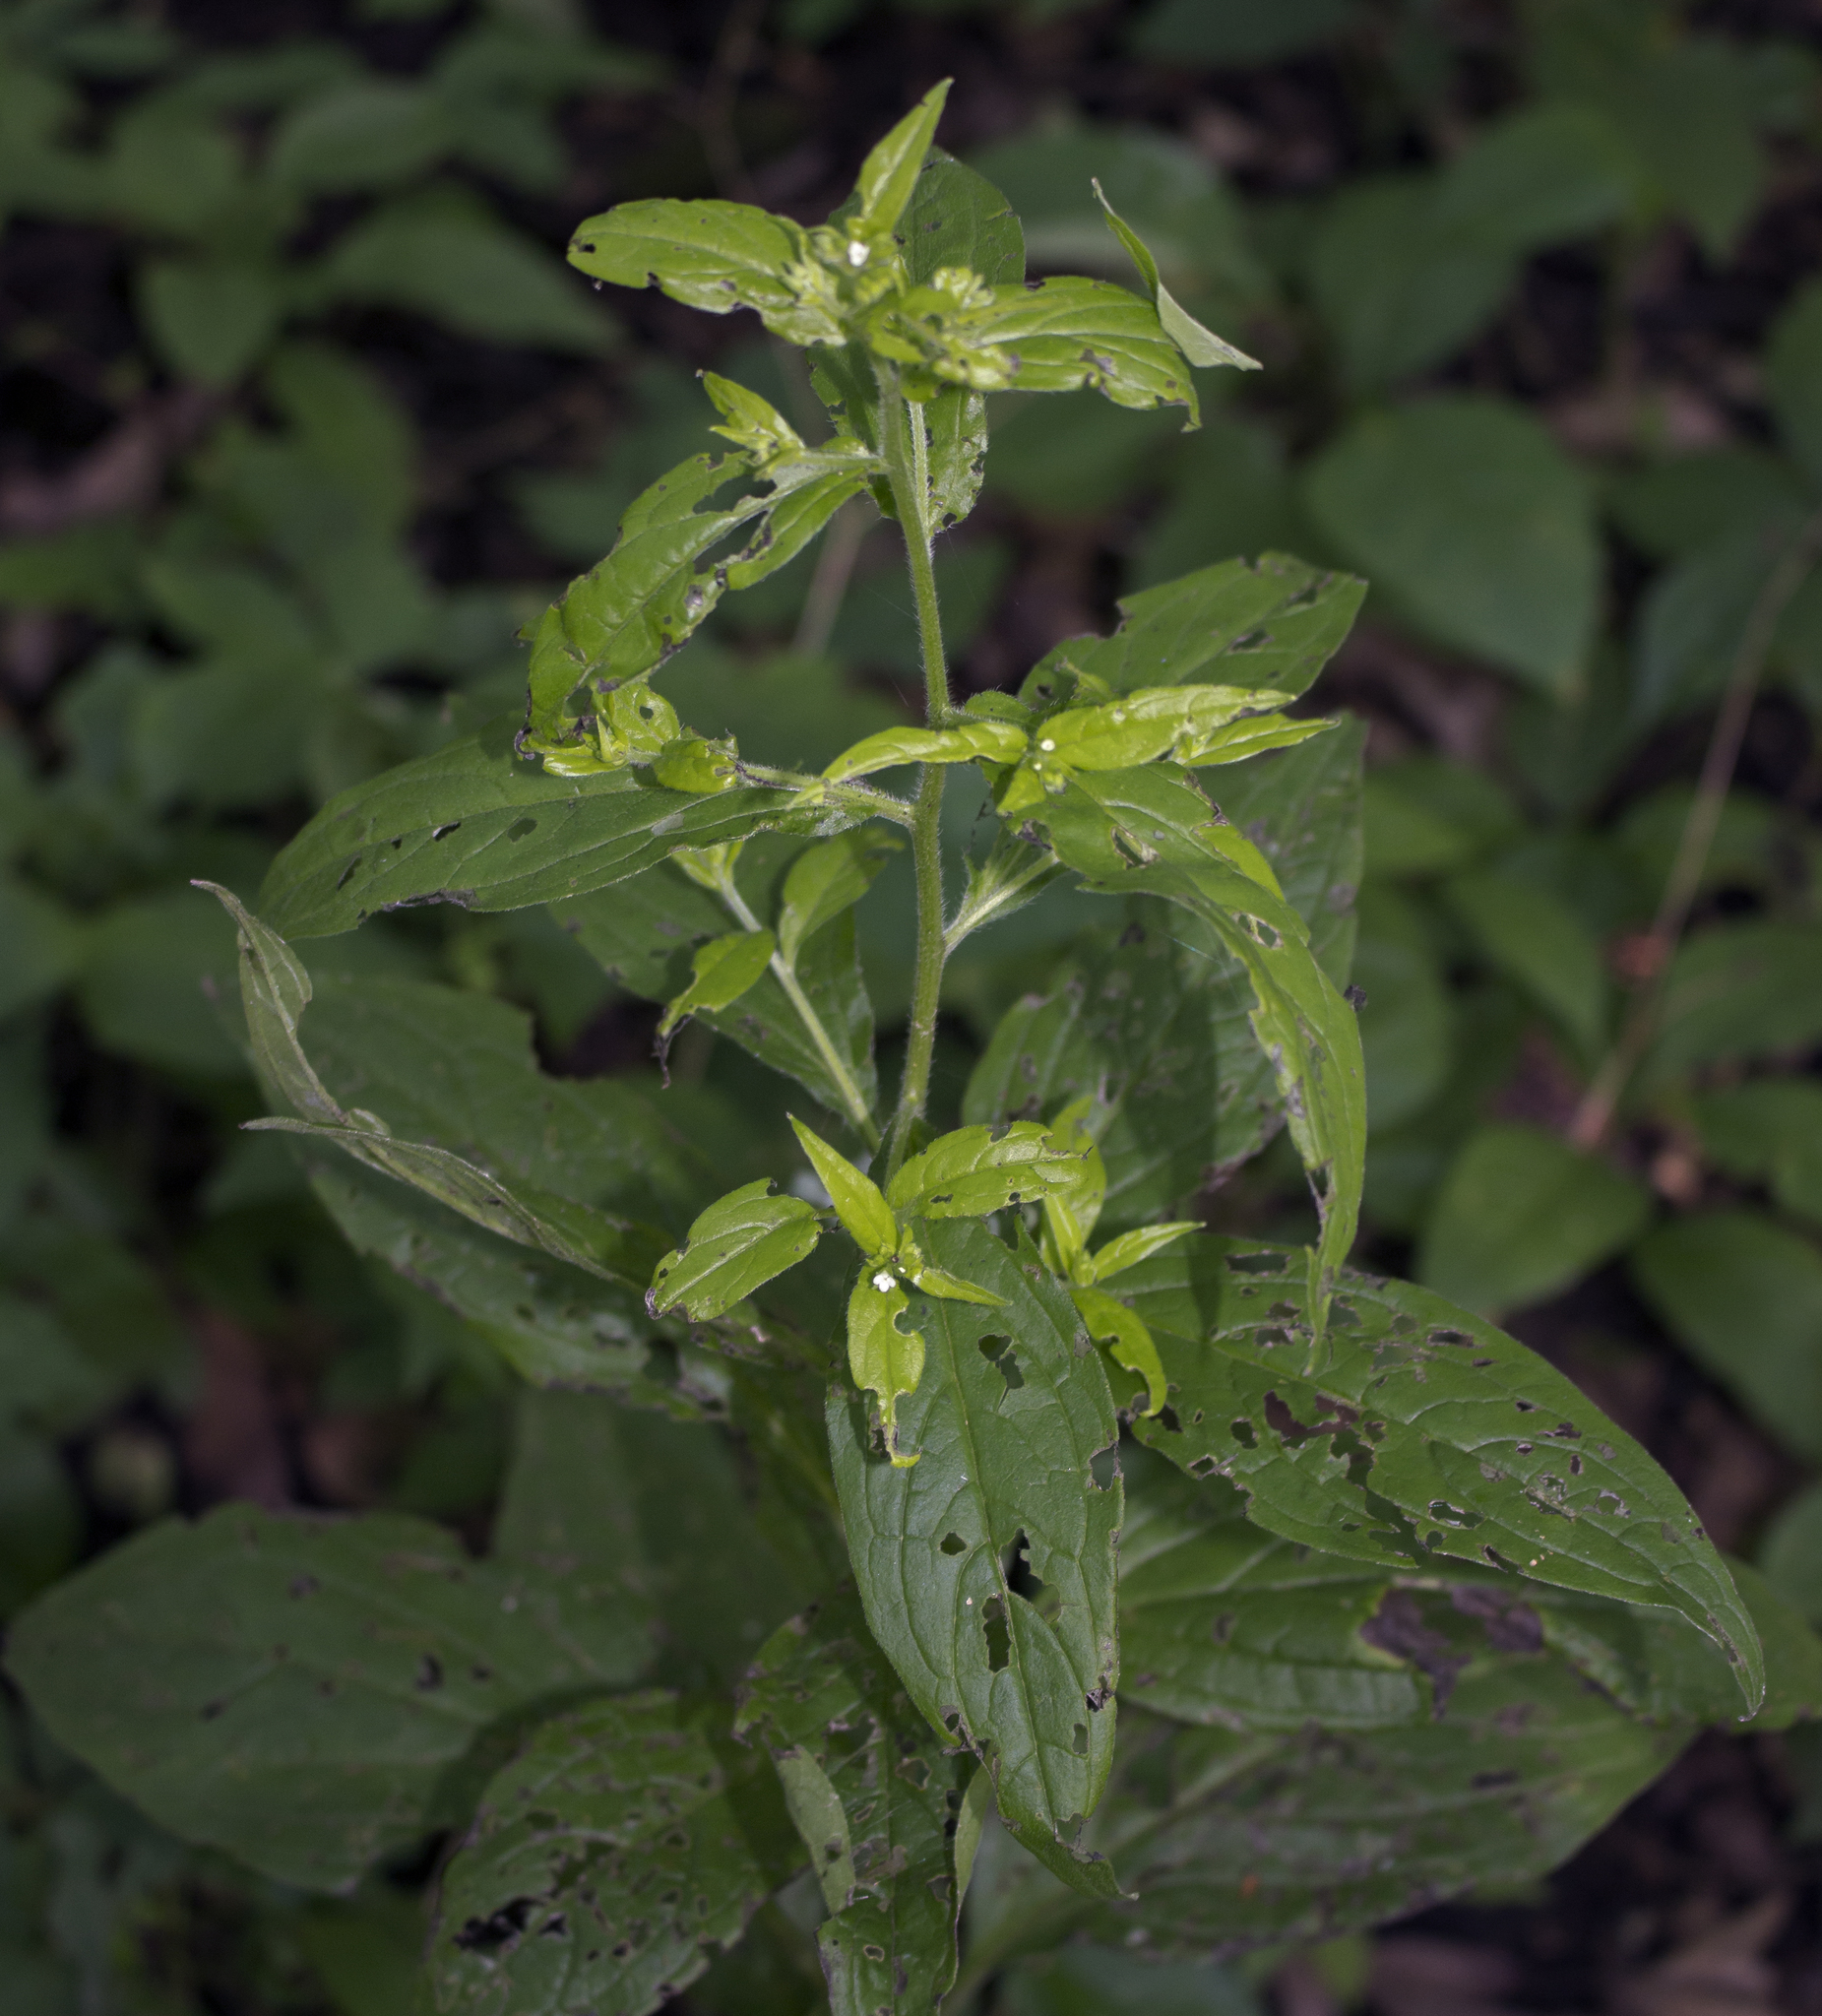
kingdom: Plantae
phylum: Tracheophyta
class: Magnoliopsida
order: Boraginales
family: Boraginaceae
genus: Hackelia
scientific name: Hackelia virginiana
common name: Beggar's-lice
